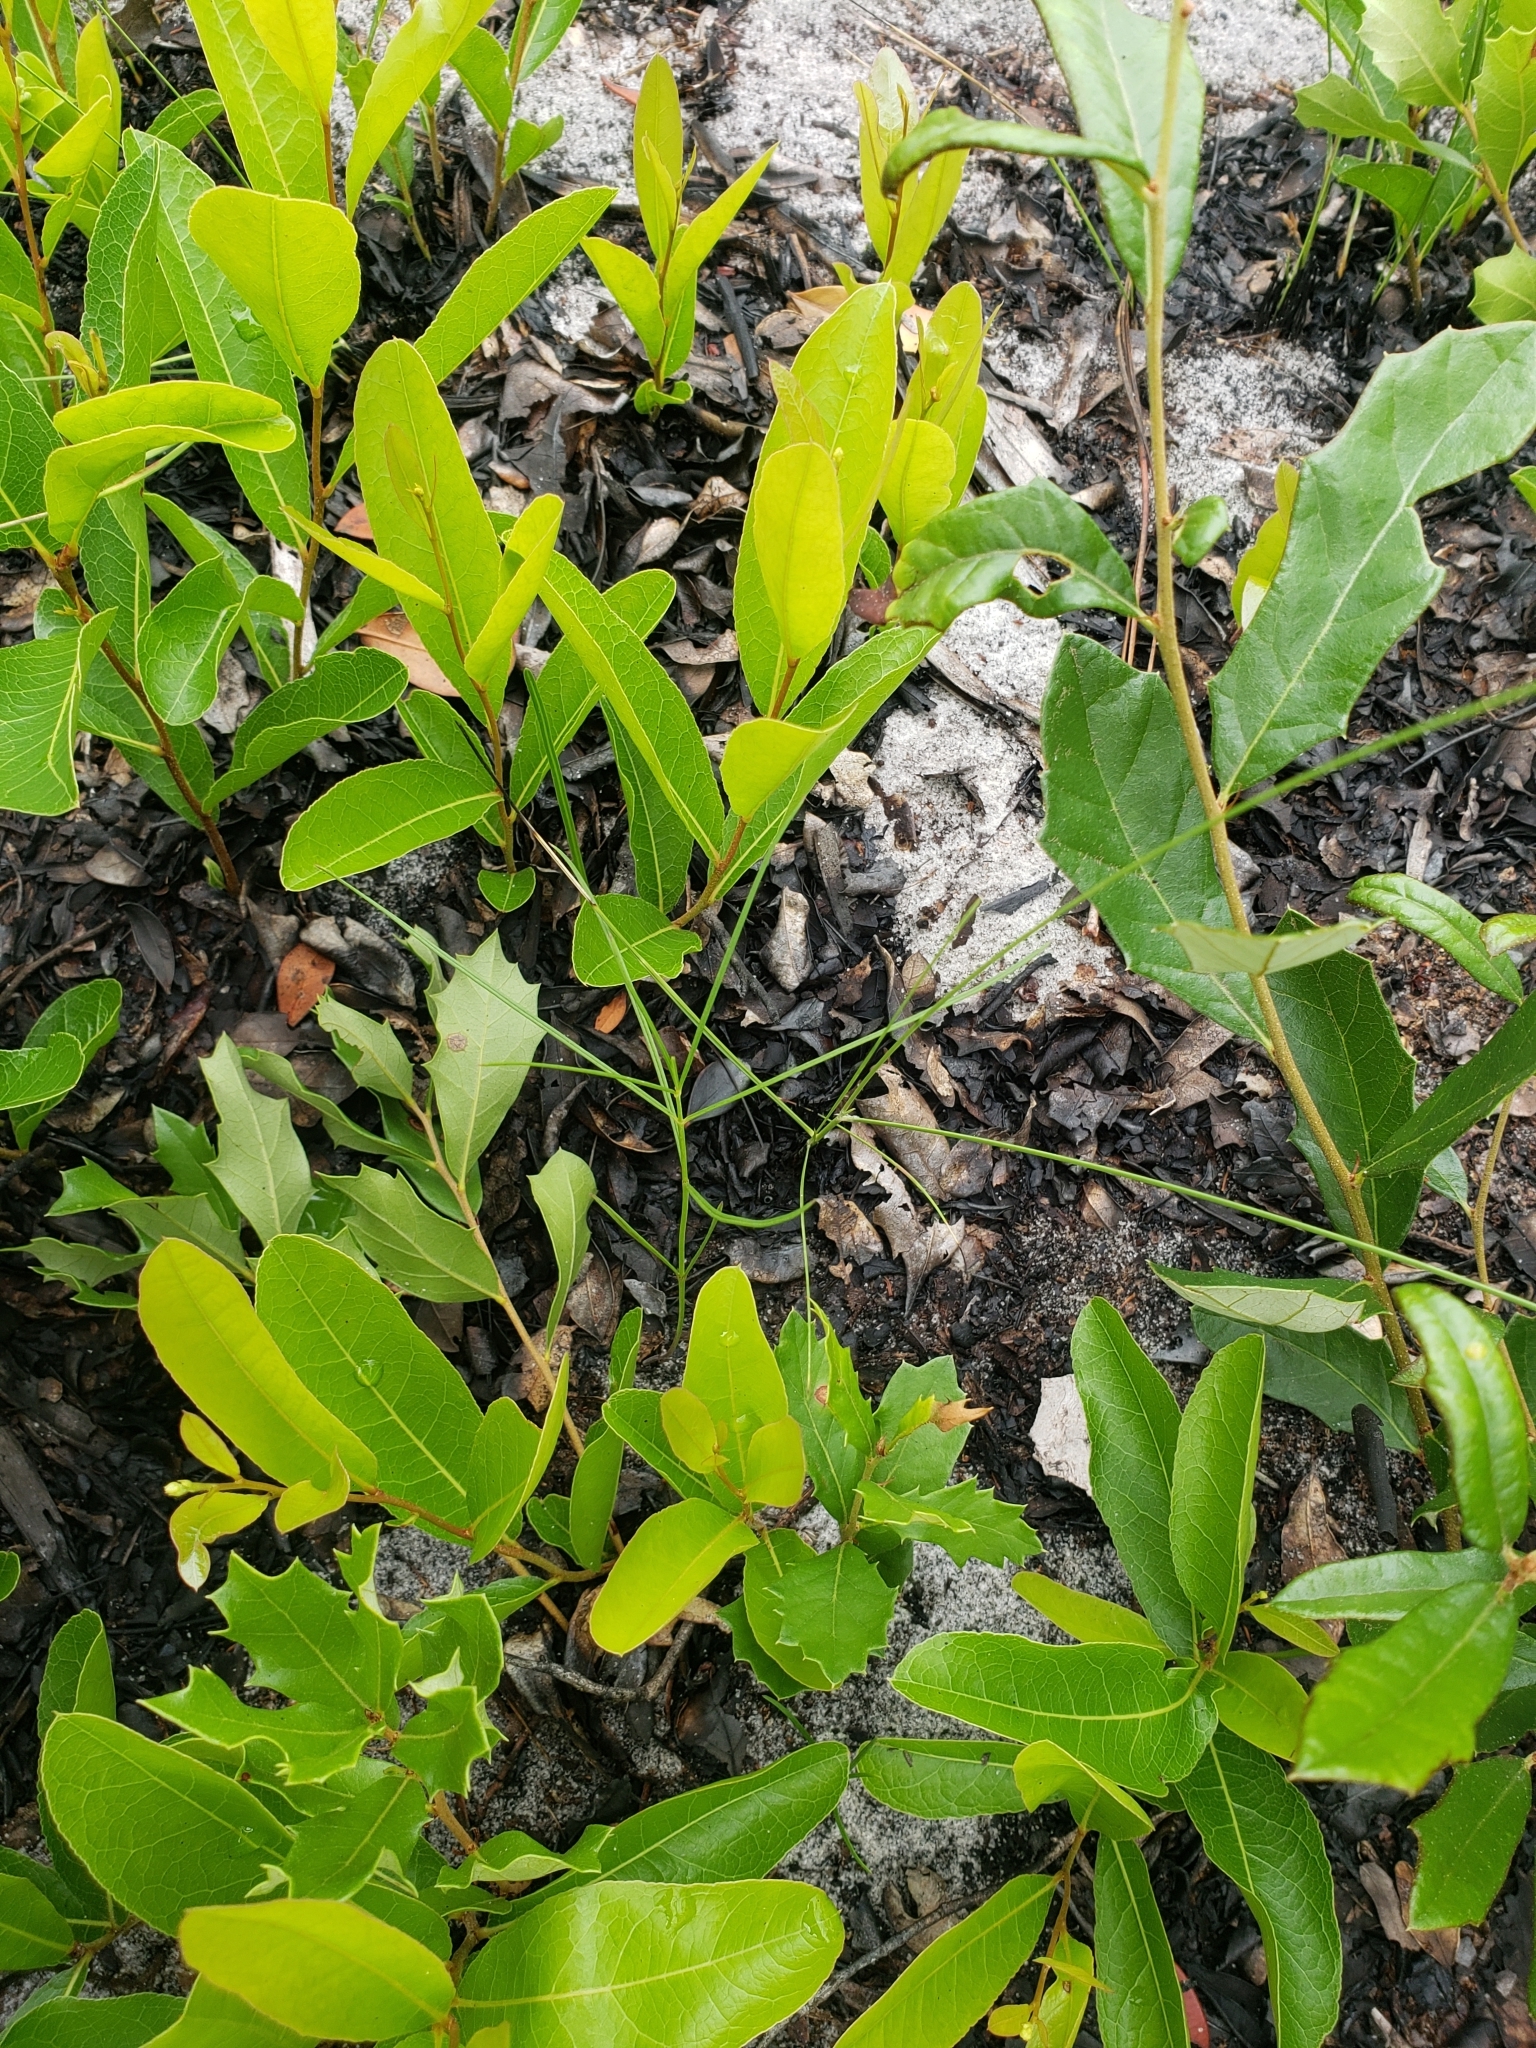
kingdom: Plantae
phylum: Tracheophyta
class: Magnoliopsida
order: Gentianales
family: Apocynaceae
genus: Asclepias
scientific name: Asclepias feayi
